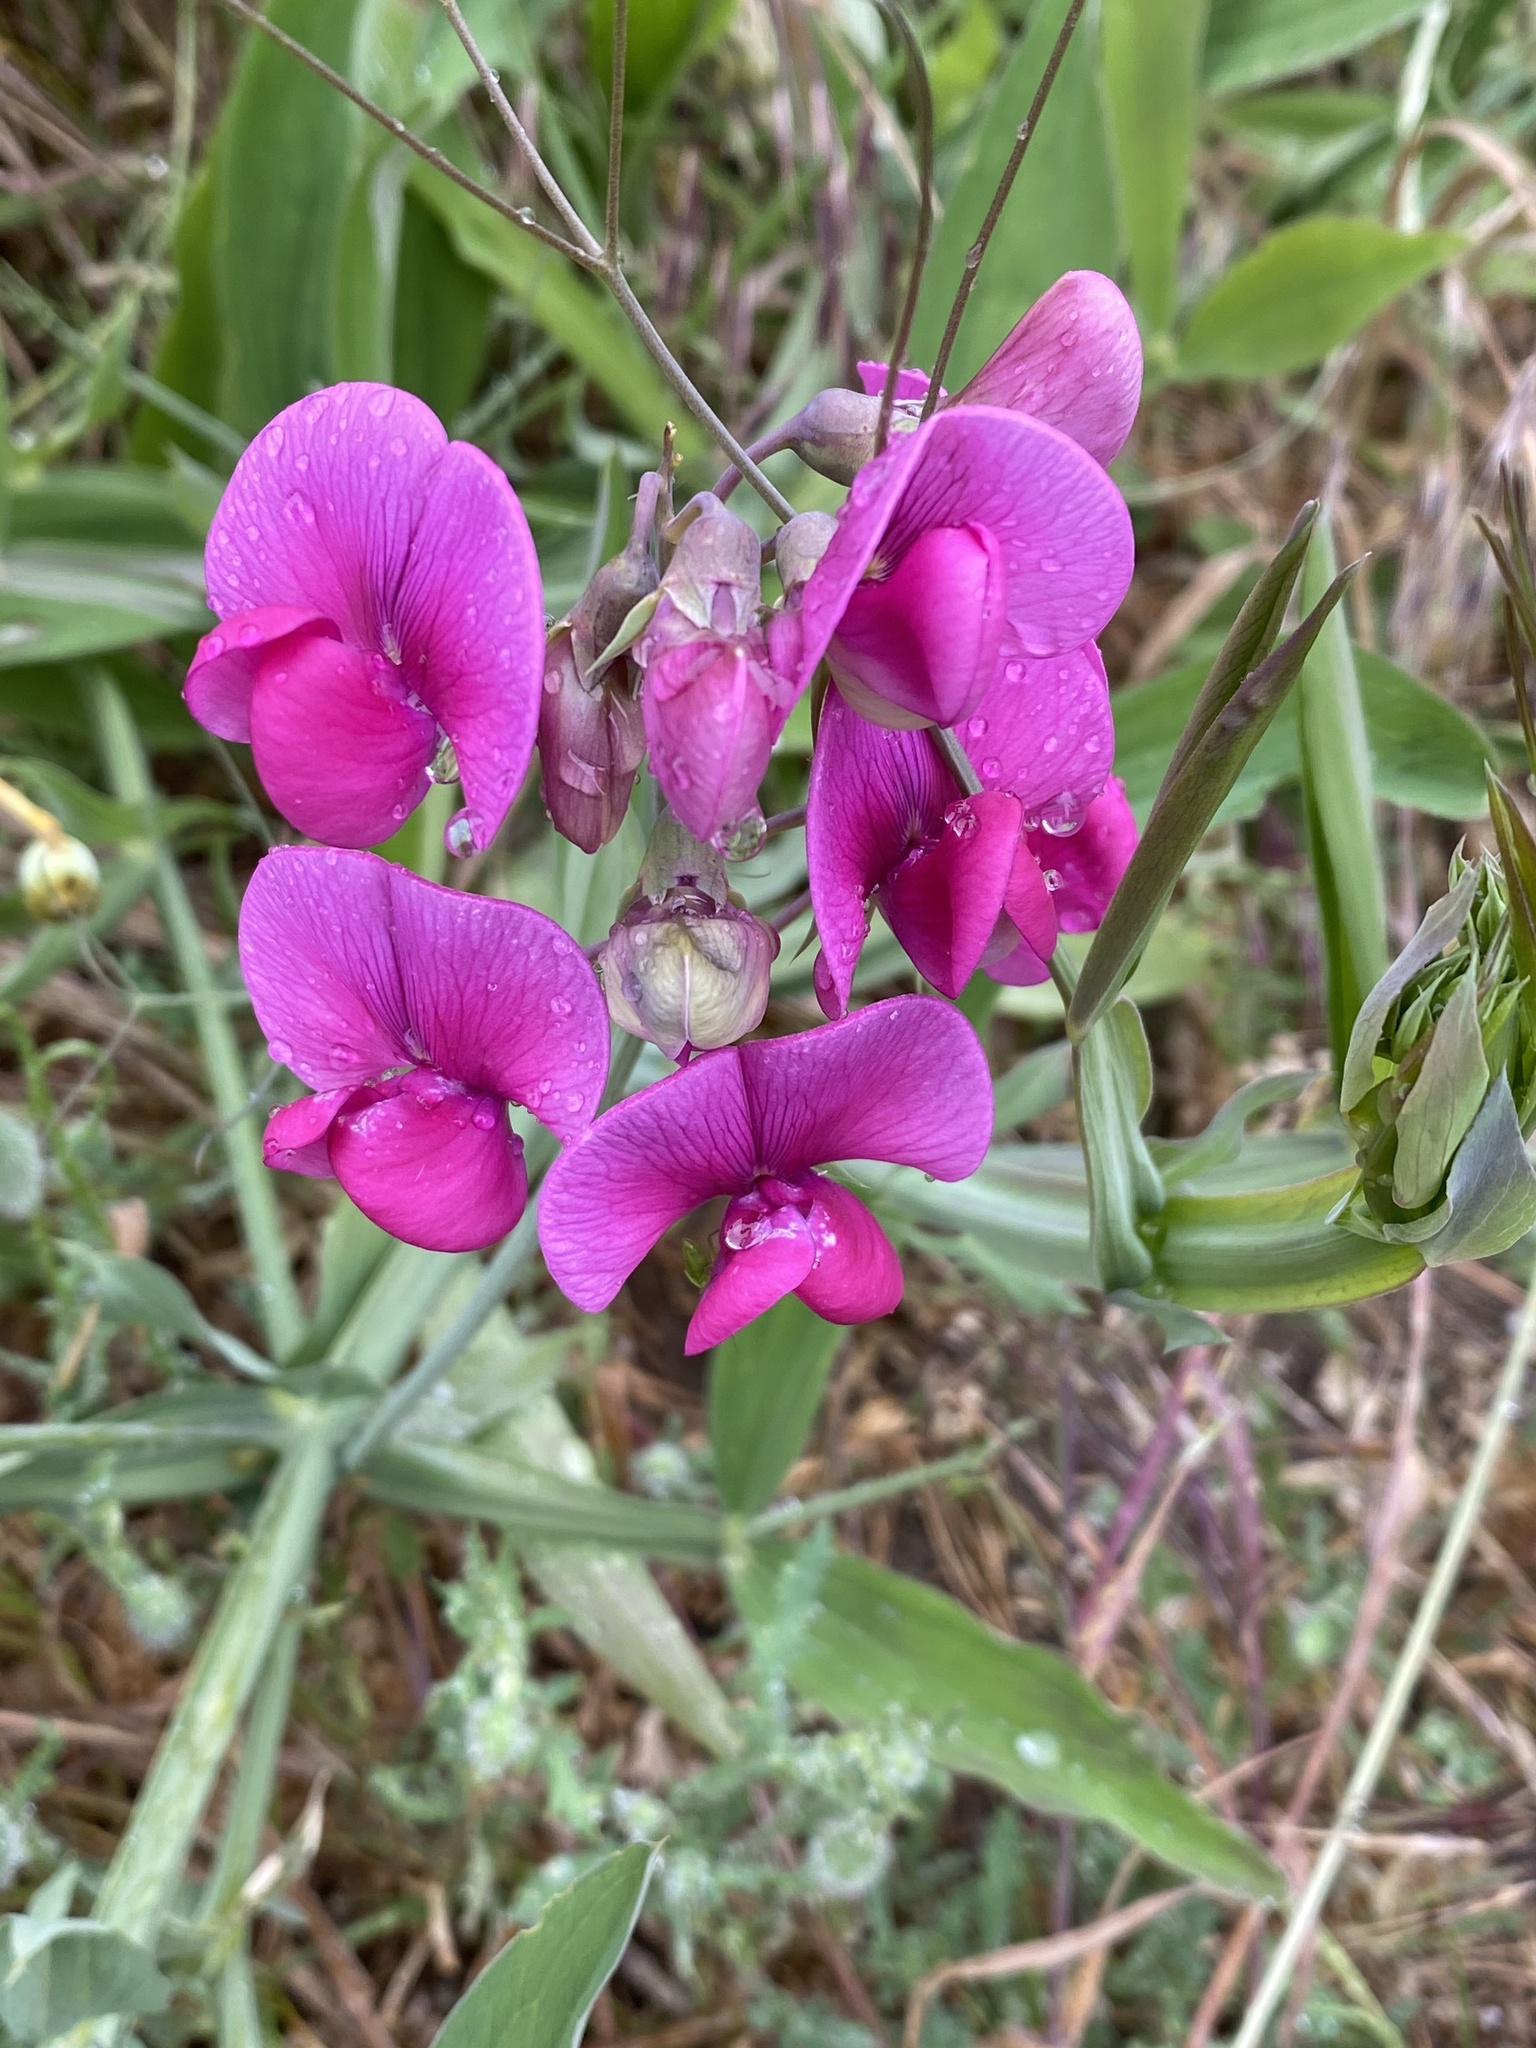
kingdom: Plantae
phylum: Tracheophyta
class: Magnoliopsida
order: Fabales
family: Fabaceae
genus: Lathyrus
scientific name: Lathyrus latifolius
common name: Perennial pea
